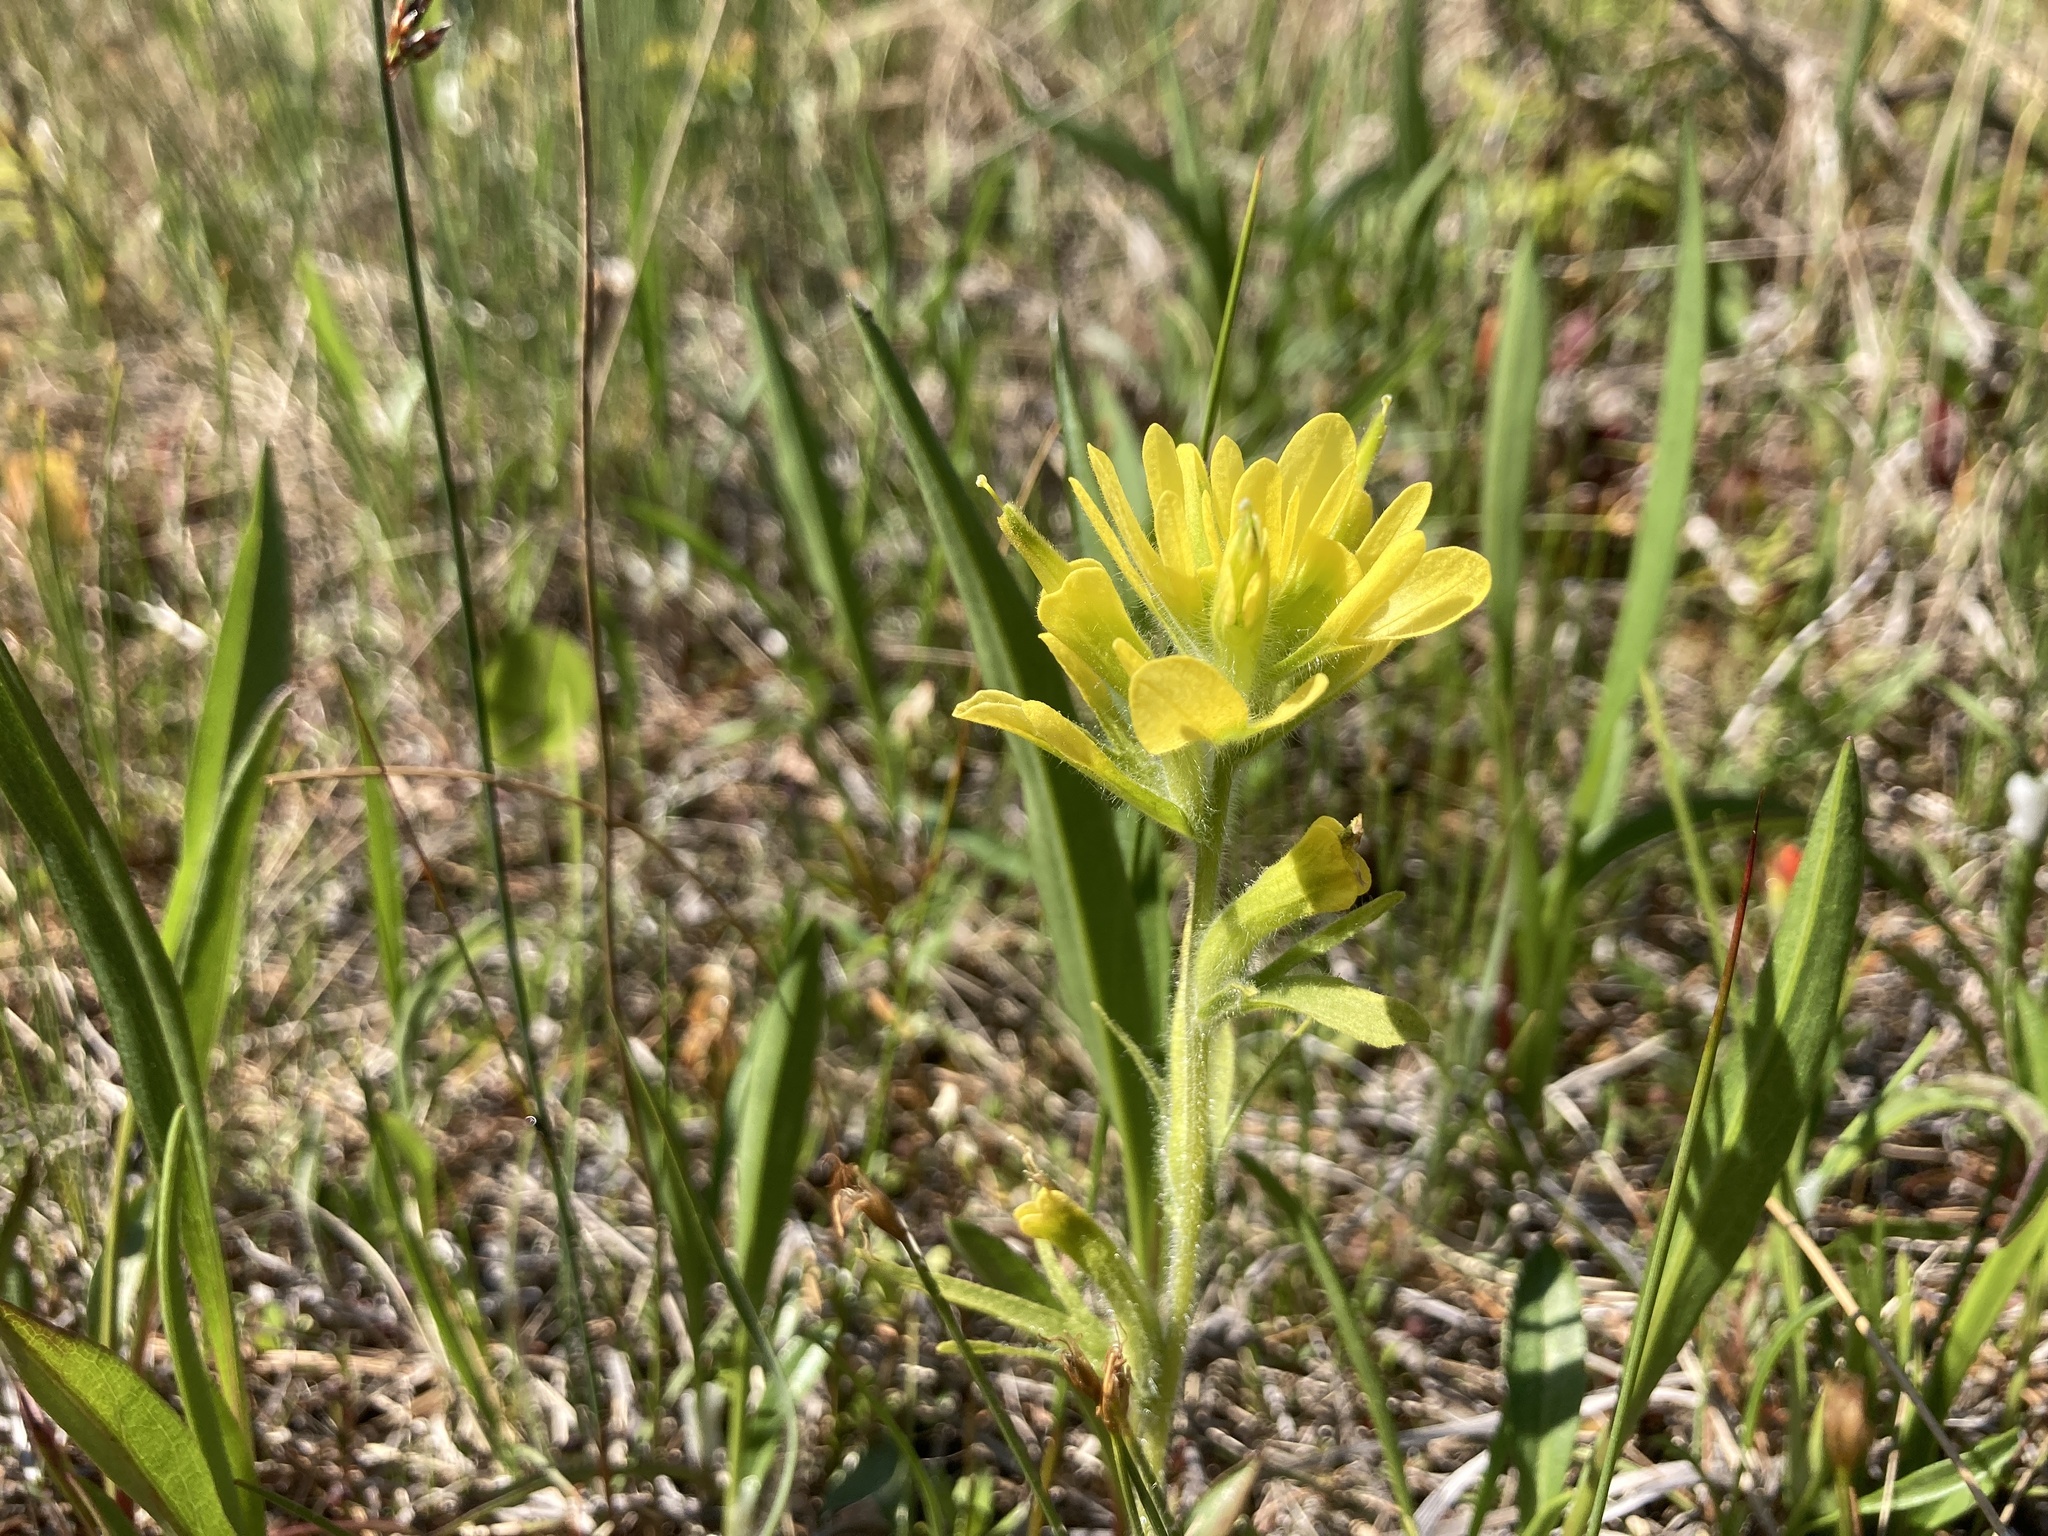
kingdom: Plantae
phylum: Tracheophyta
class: Magnoliopsida
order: Lamiales
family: Orobanchaceae
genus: Castilleja
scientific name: Castilleja coccinea
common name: Scarlet paintbrush
